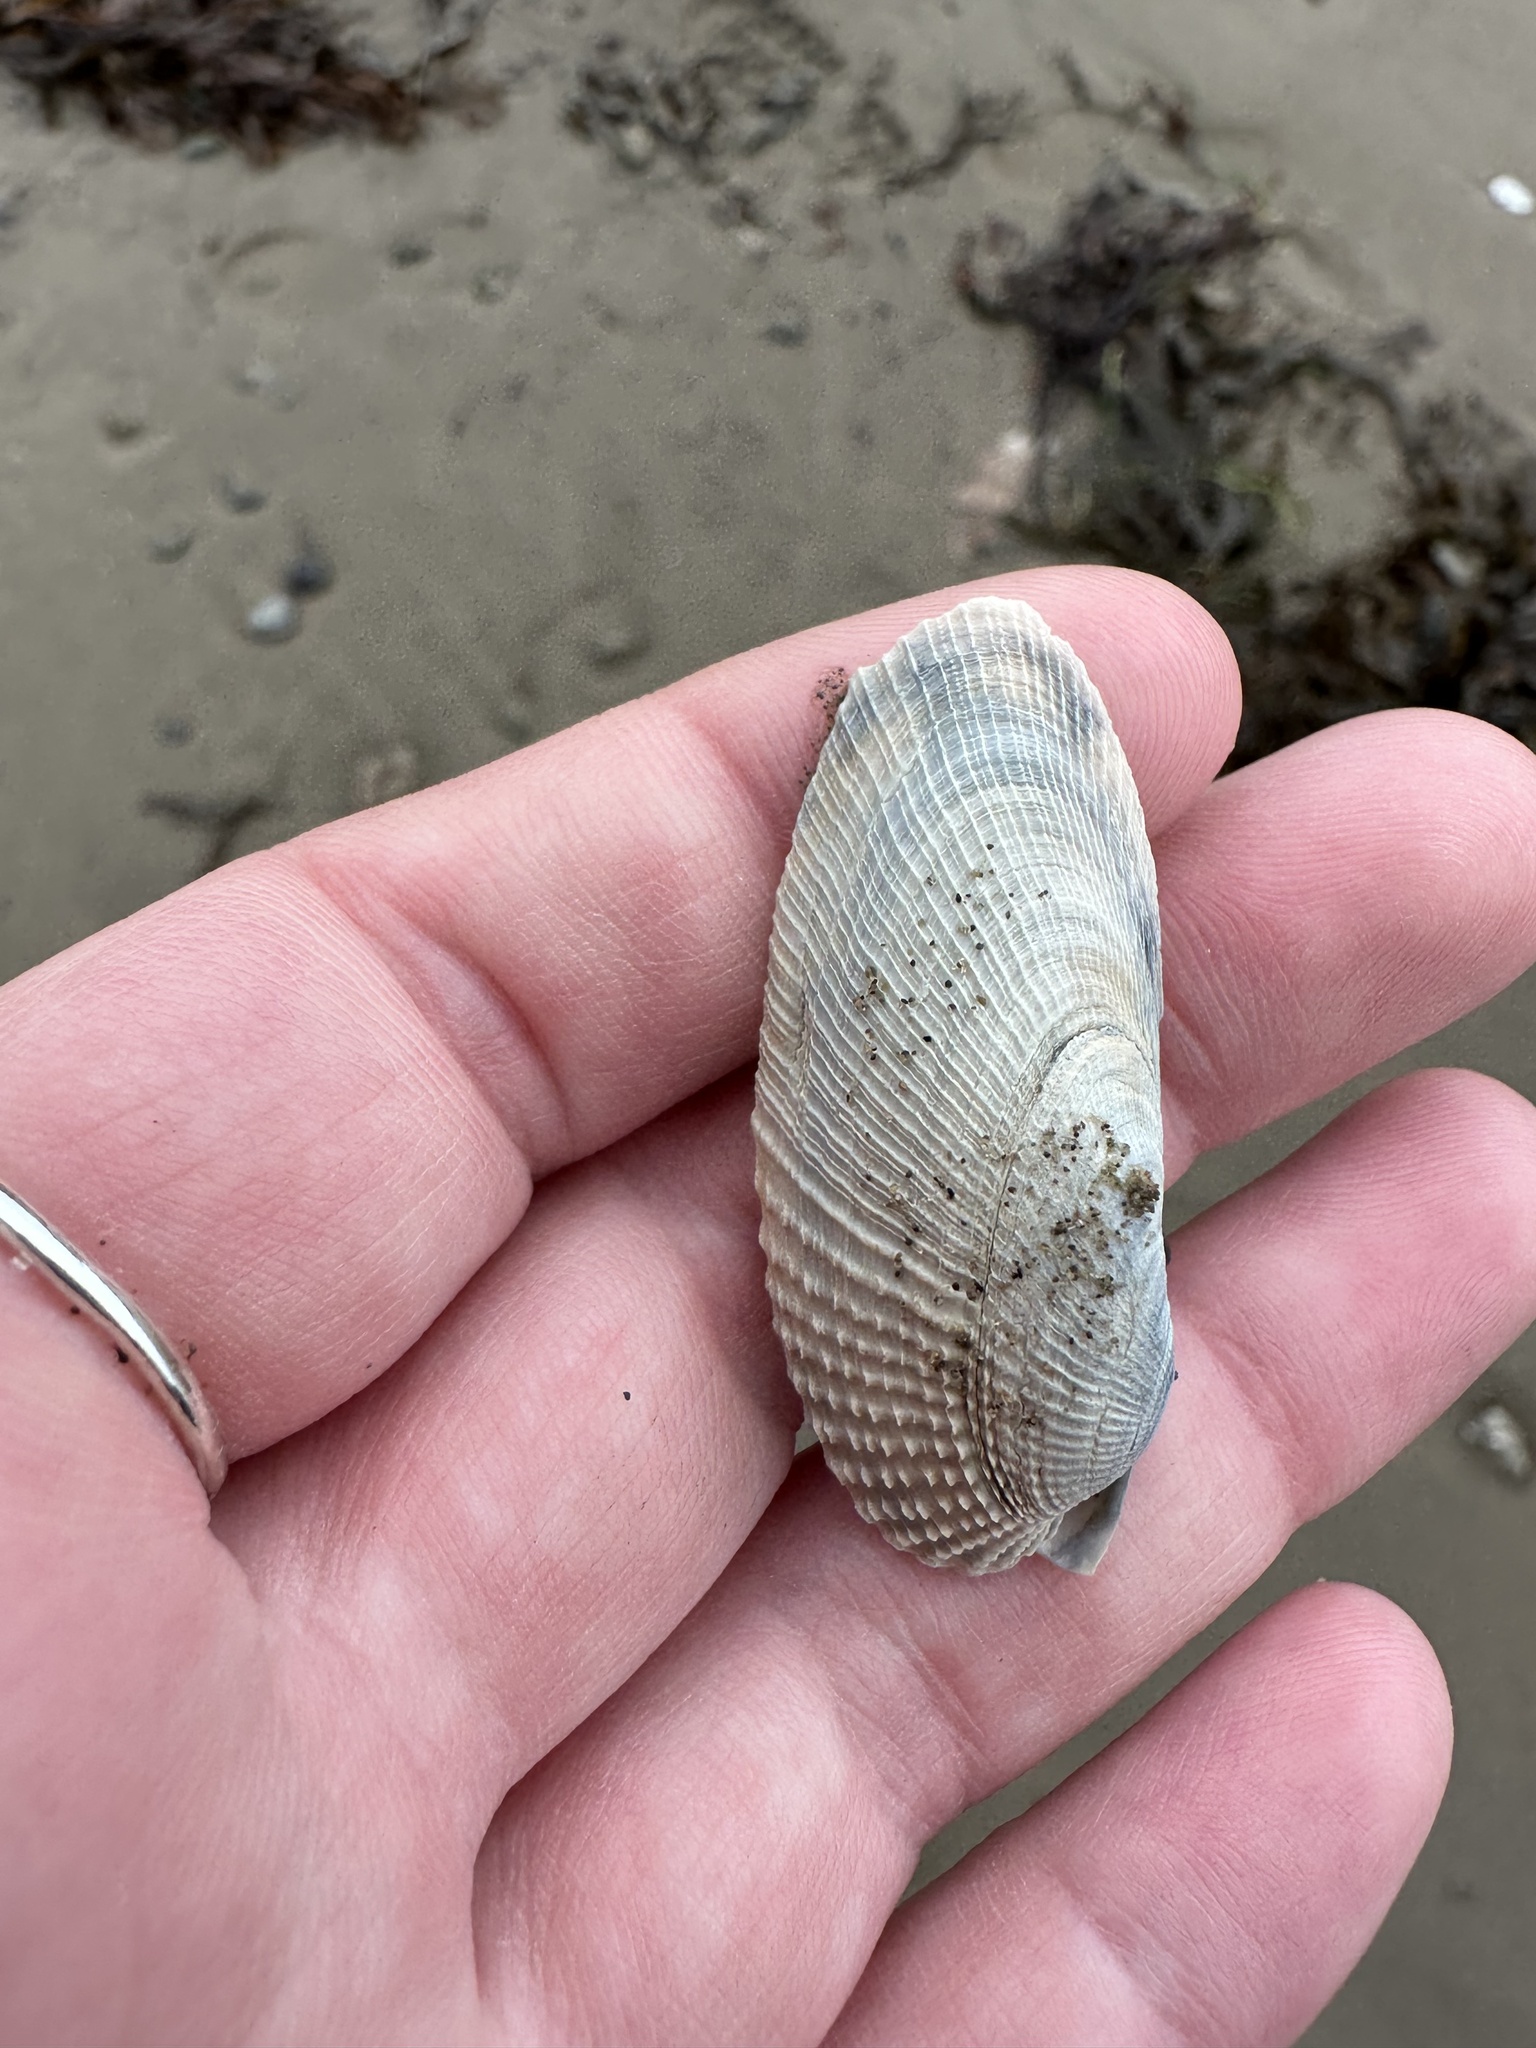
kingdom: Animalia
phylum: Mollusca
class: Bivalvia
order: Venerida
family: Veneridae
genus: Petricolaria
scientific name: Petricolaria pholadiformis
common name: American piddock
